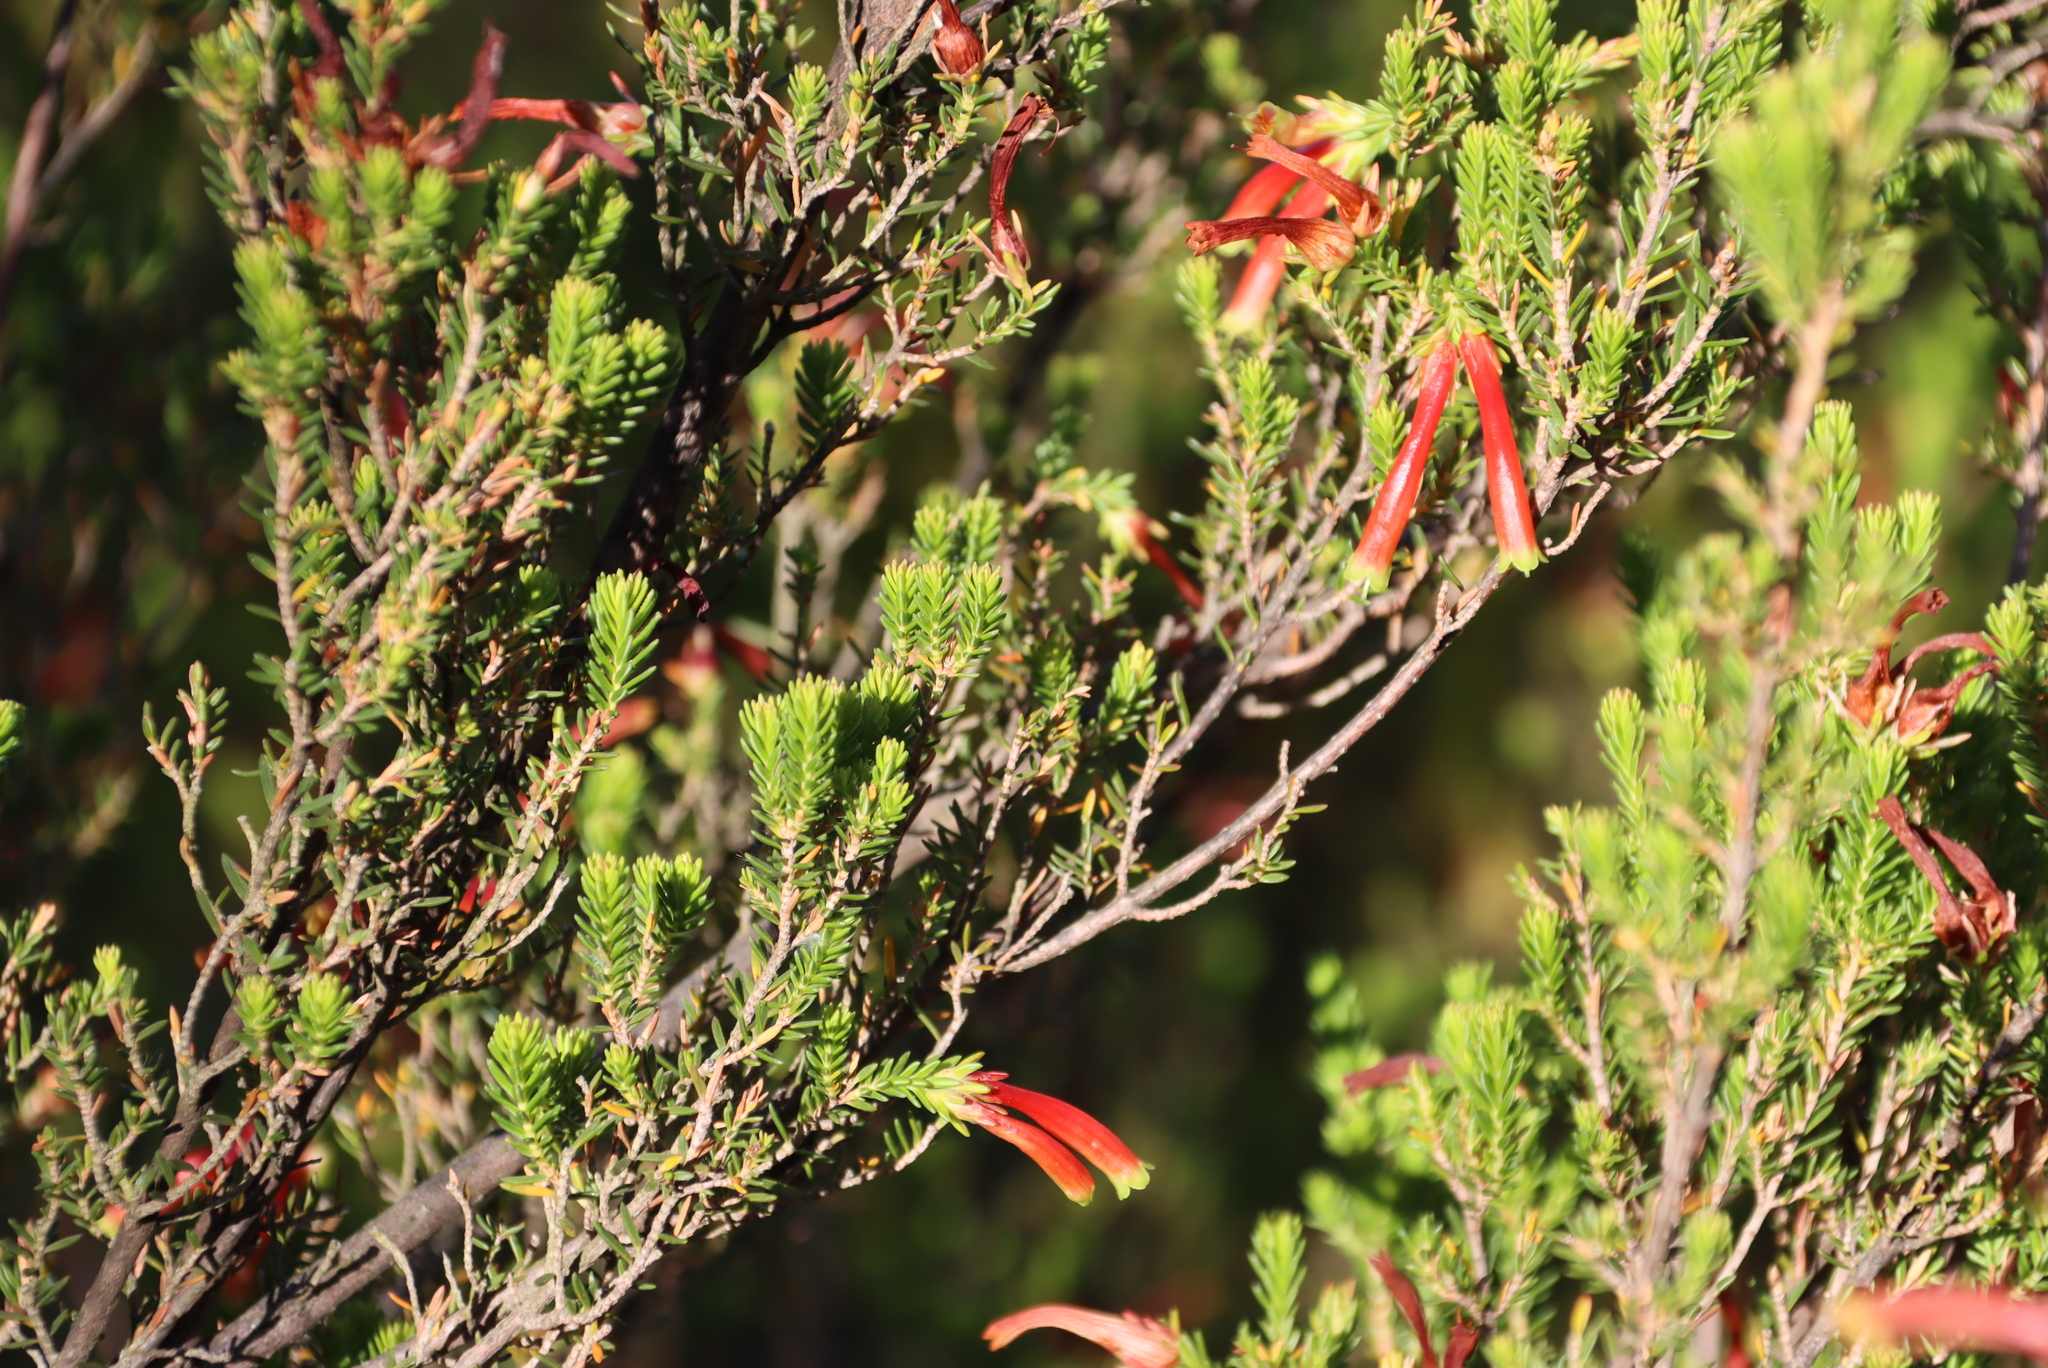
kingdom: Plantae
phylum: Tracheophyta
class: Magnoliopsida
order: Ericales
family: Ericaceae
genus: Erica
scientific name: Erica discolor
